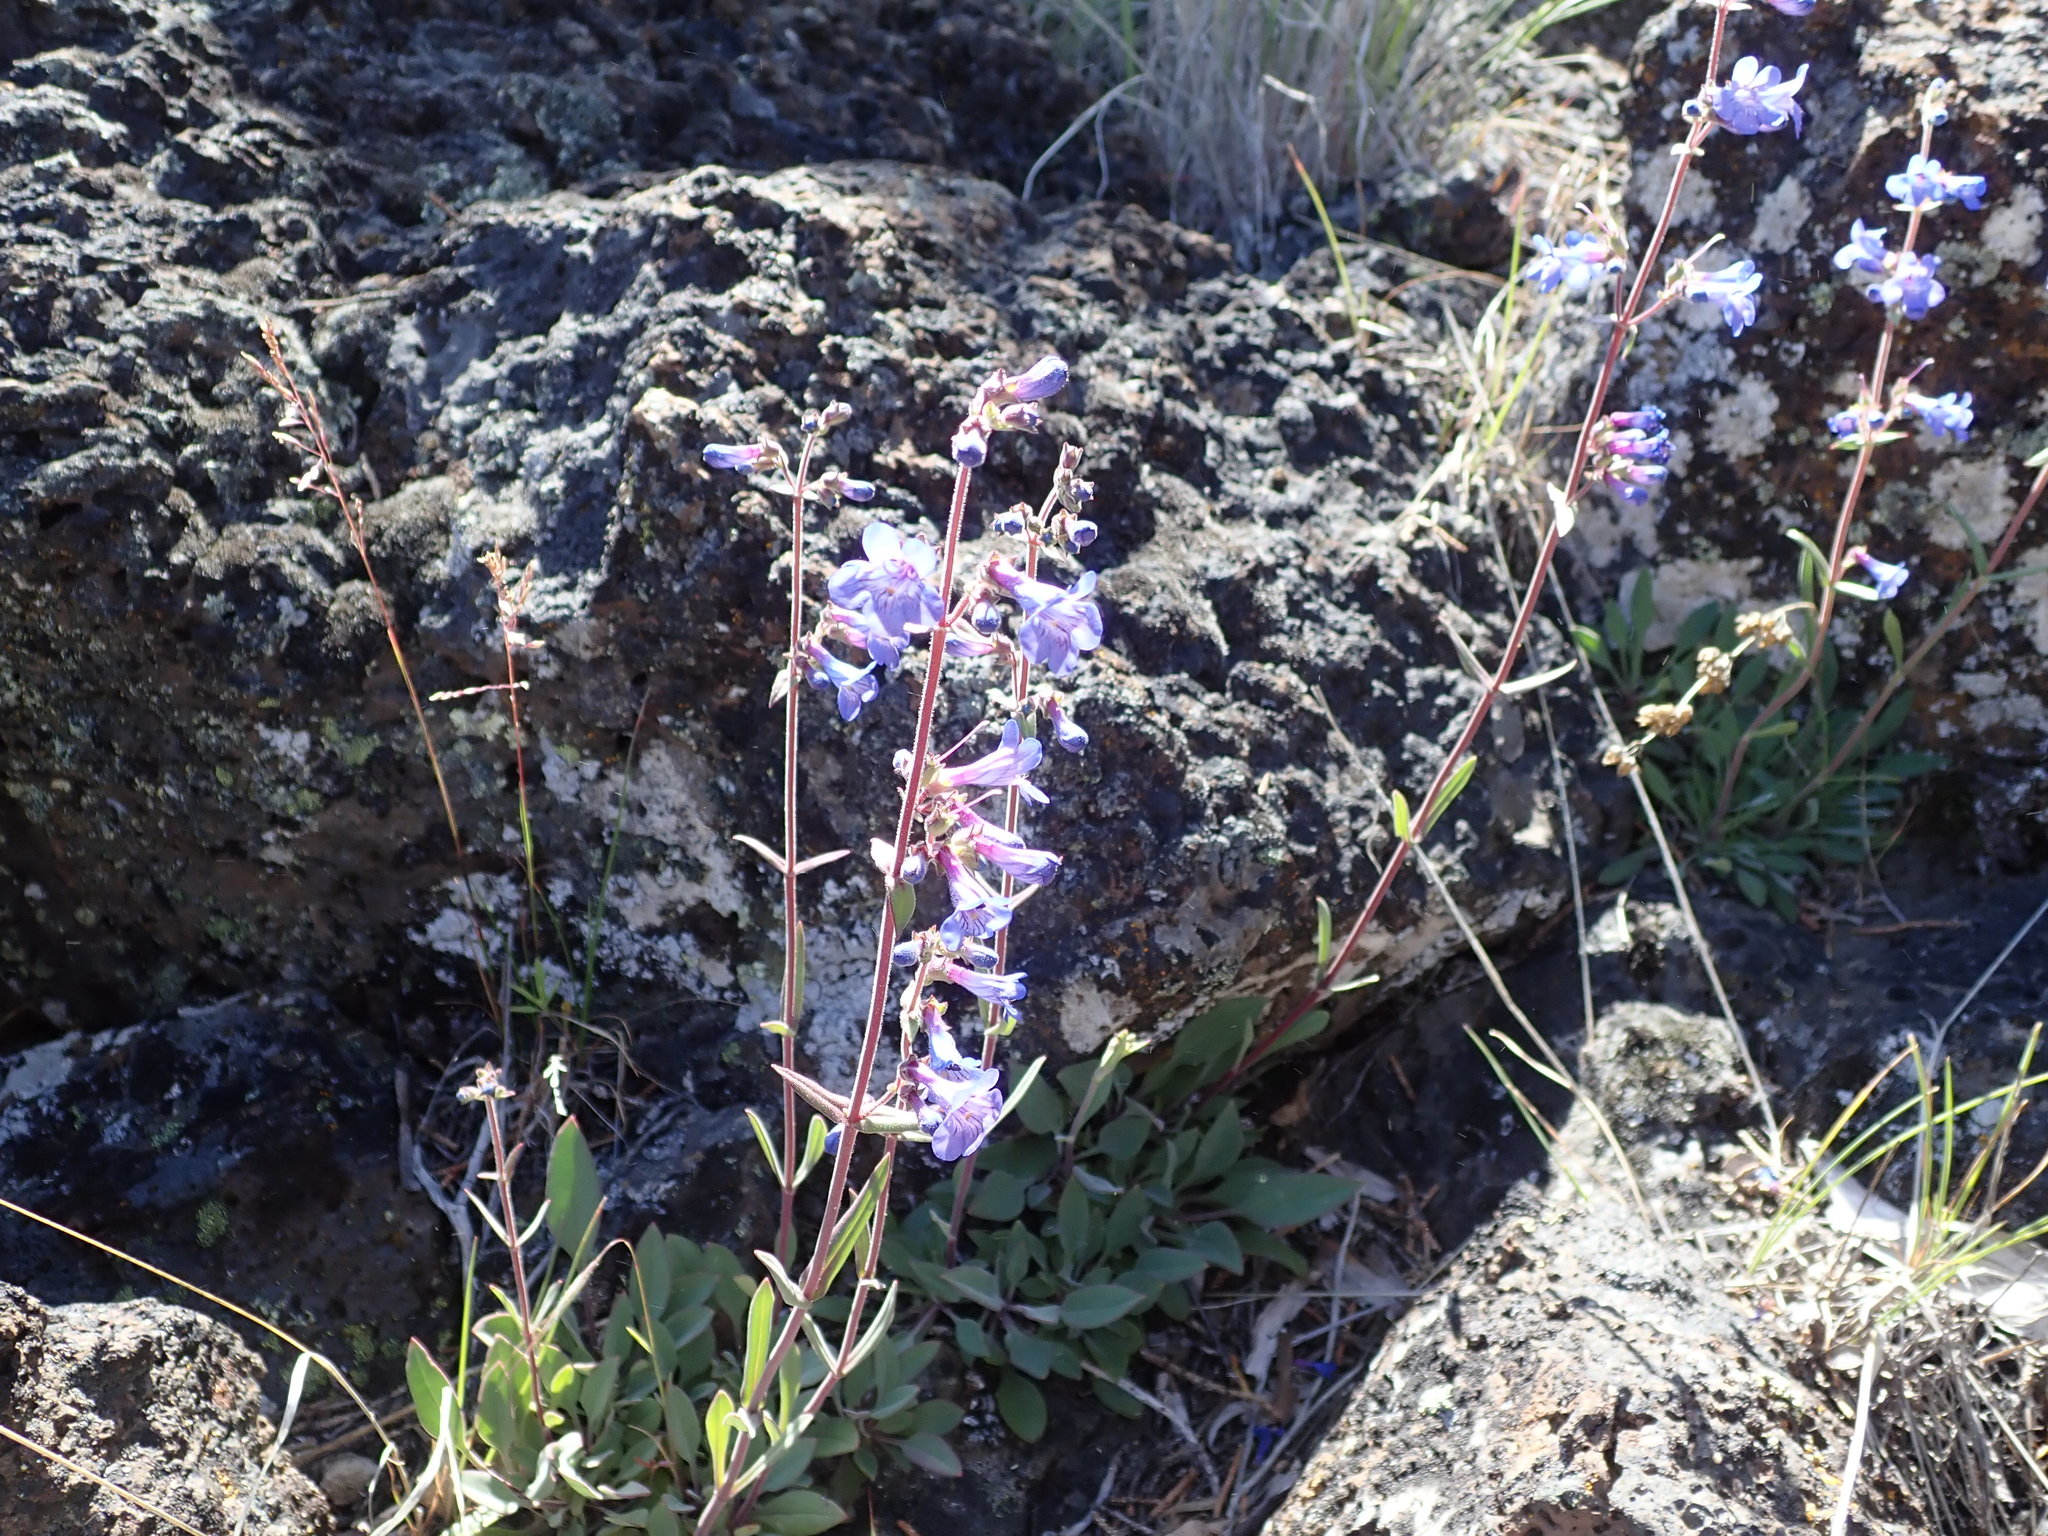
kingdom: Plantae
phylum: Tracheophyta
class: Magnoliopsida
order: Lamiales
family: Plantaginaceae
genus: Penstemon
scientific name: Penstemon humilis
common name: Low penstemon
